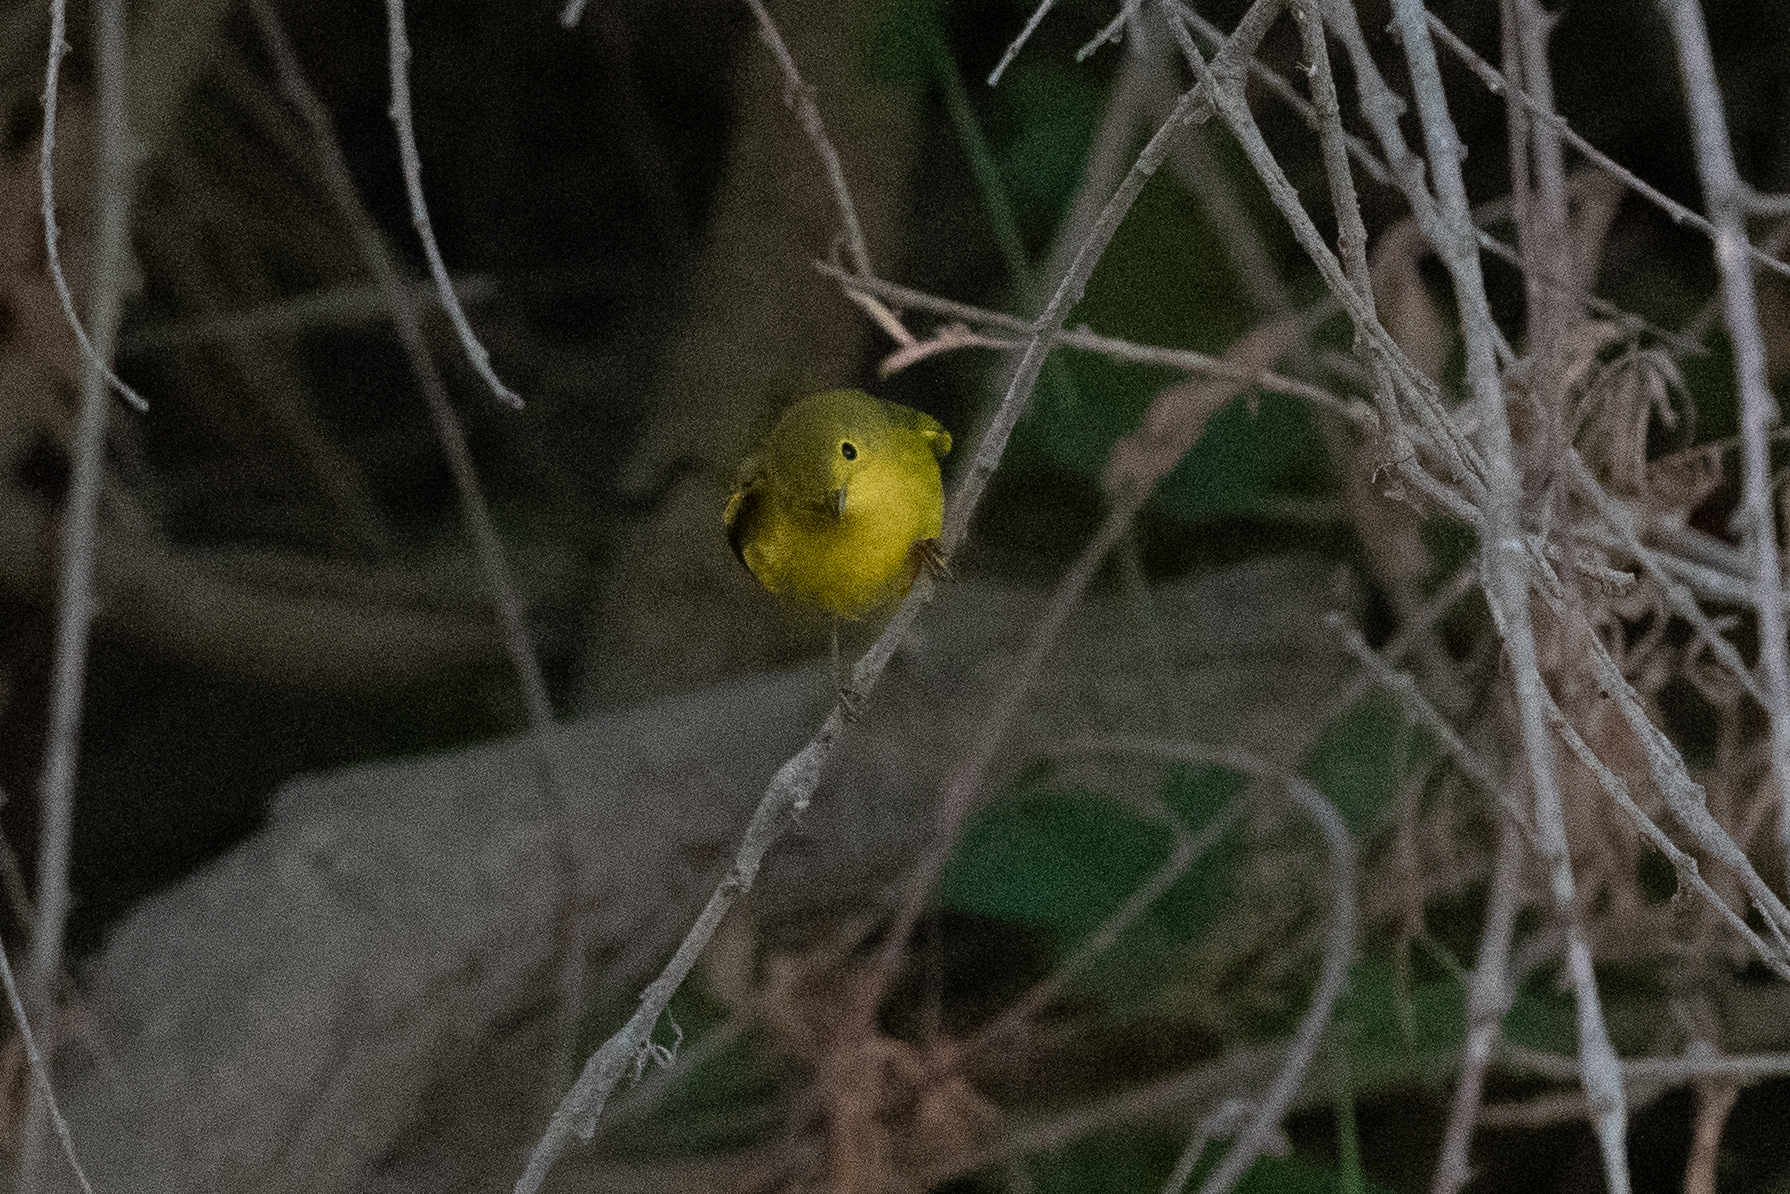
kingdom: Animalia
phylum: Chordata
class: Aves
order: Passeriformes
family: Parulidae
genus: Setophaga
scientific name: Setophaga petechia
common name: Yellow warbler
